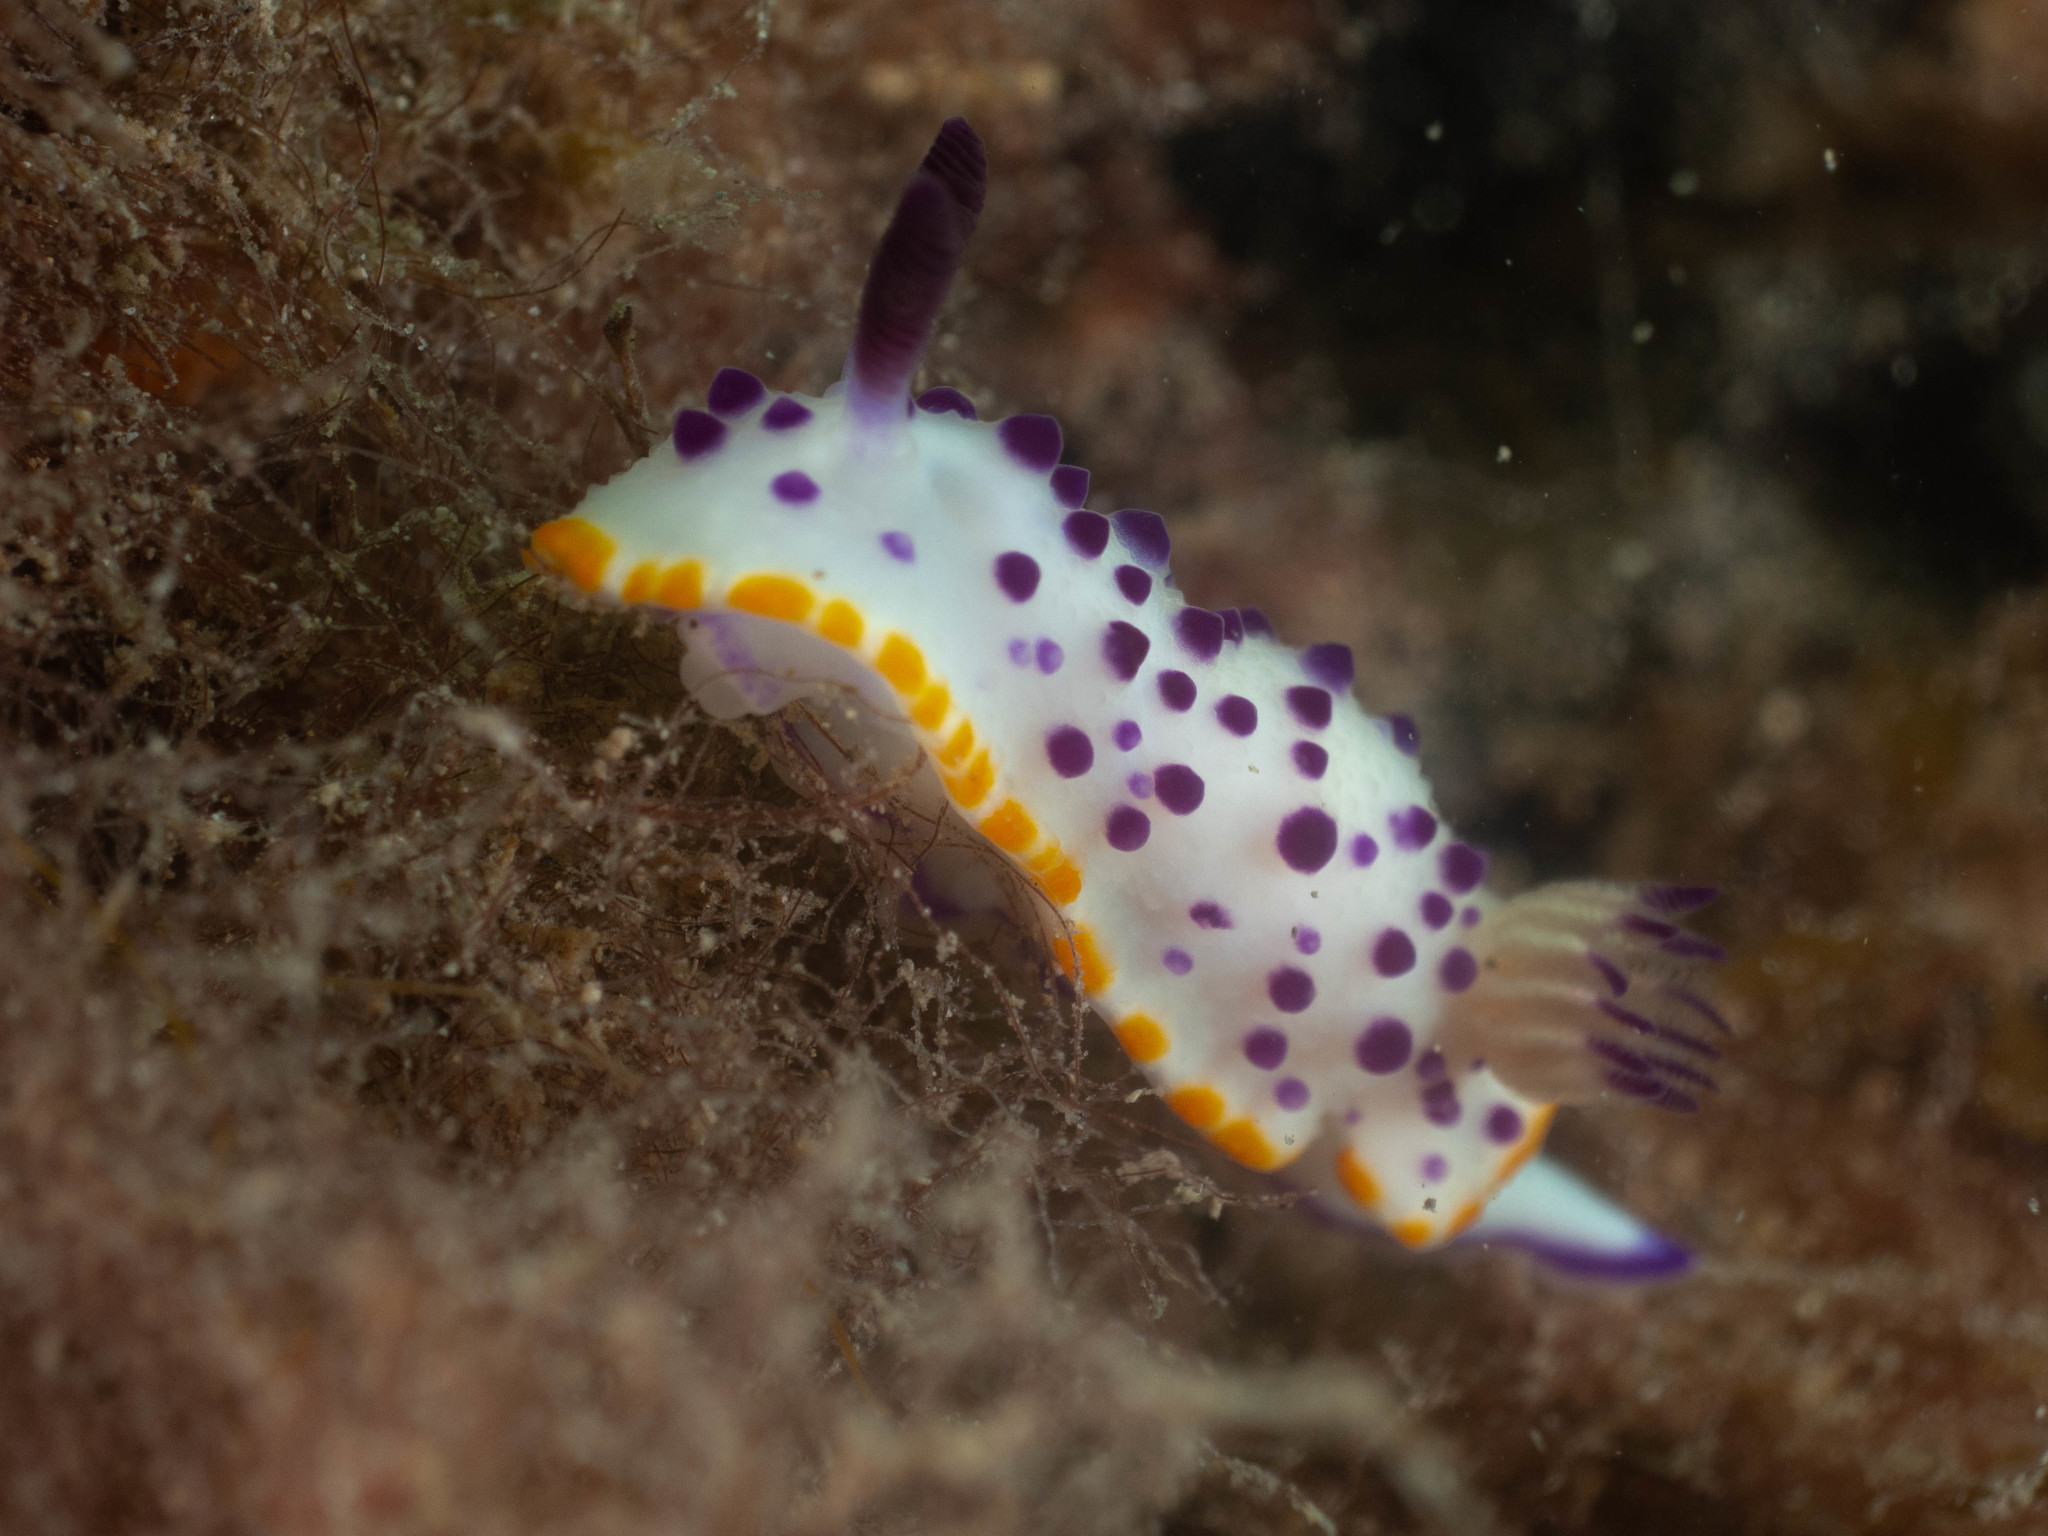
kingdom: Animalia
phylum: Mollusca
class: Gastropoda
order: Nudibranchia
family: Chromodorididae
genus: Mexichromis
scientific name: Mexichromis mariei
